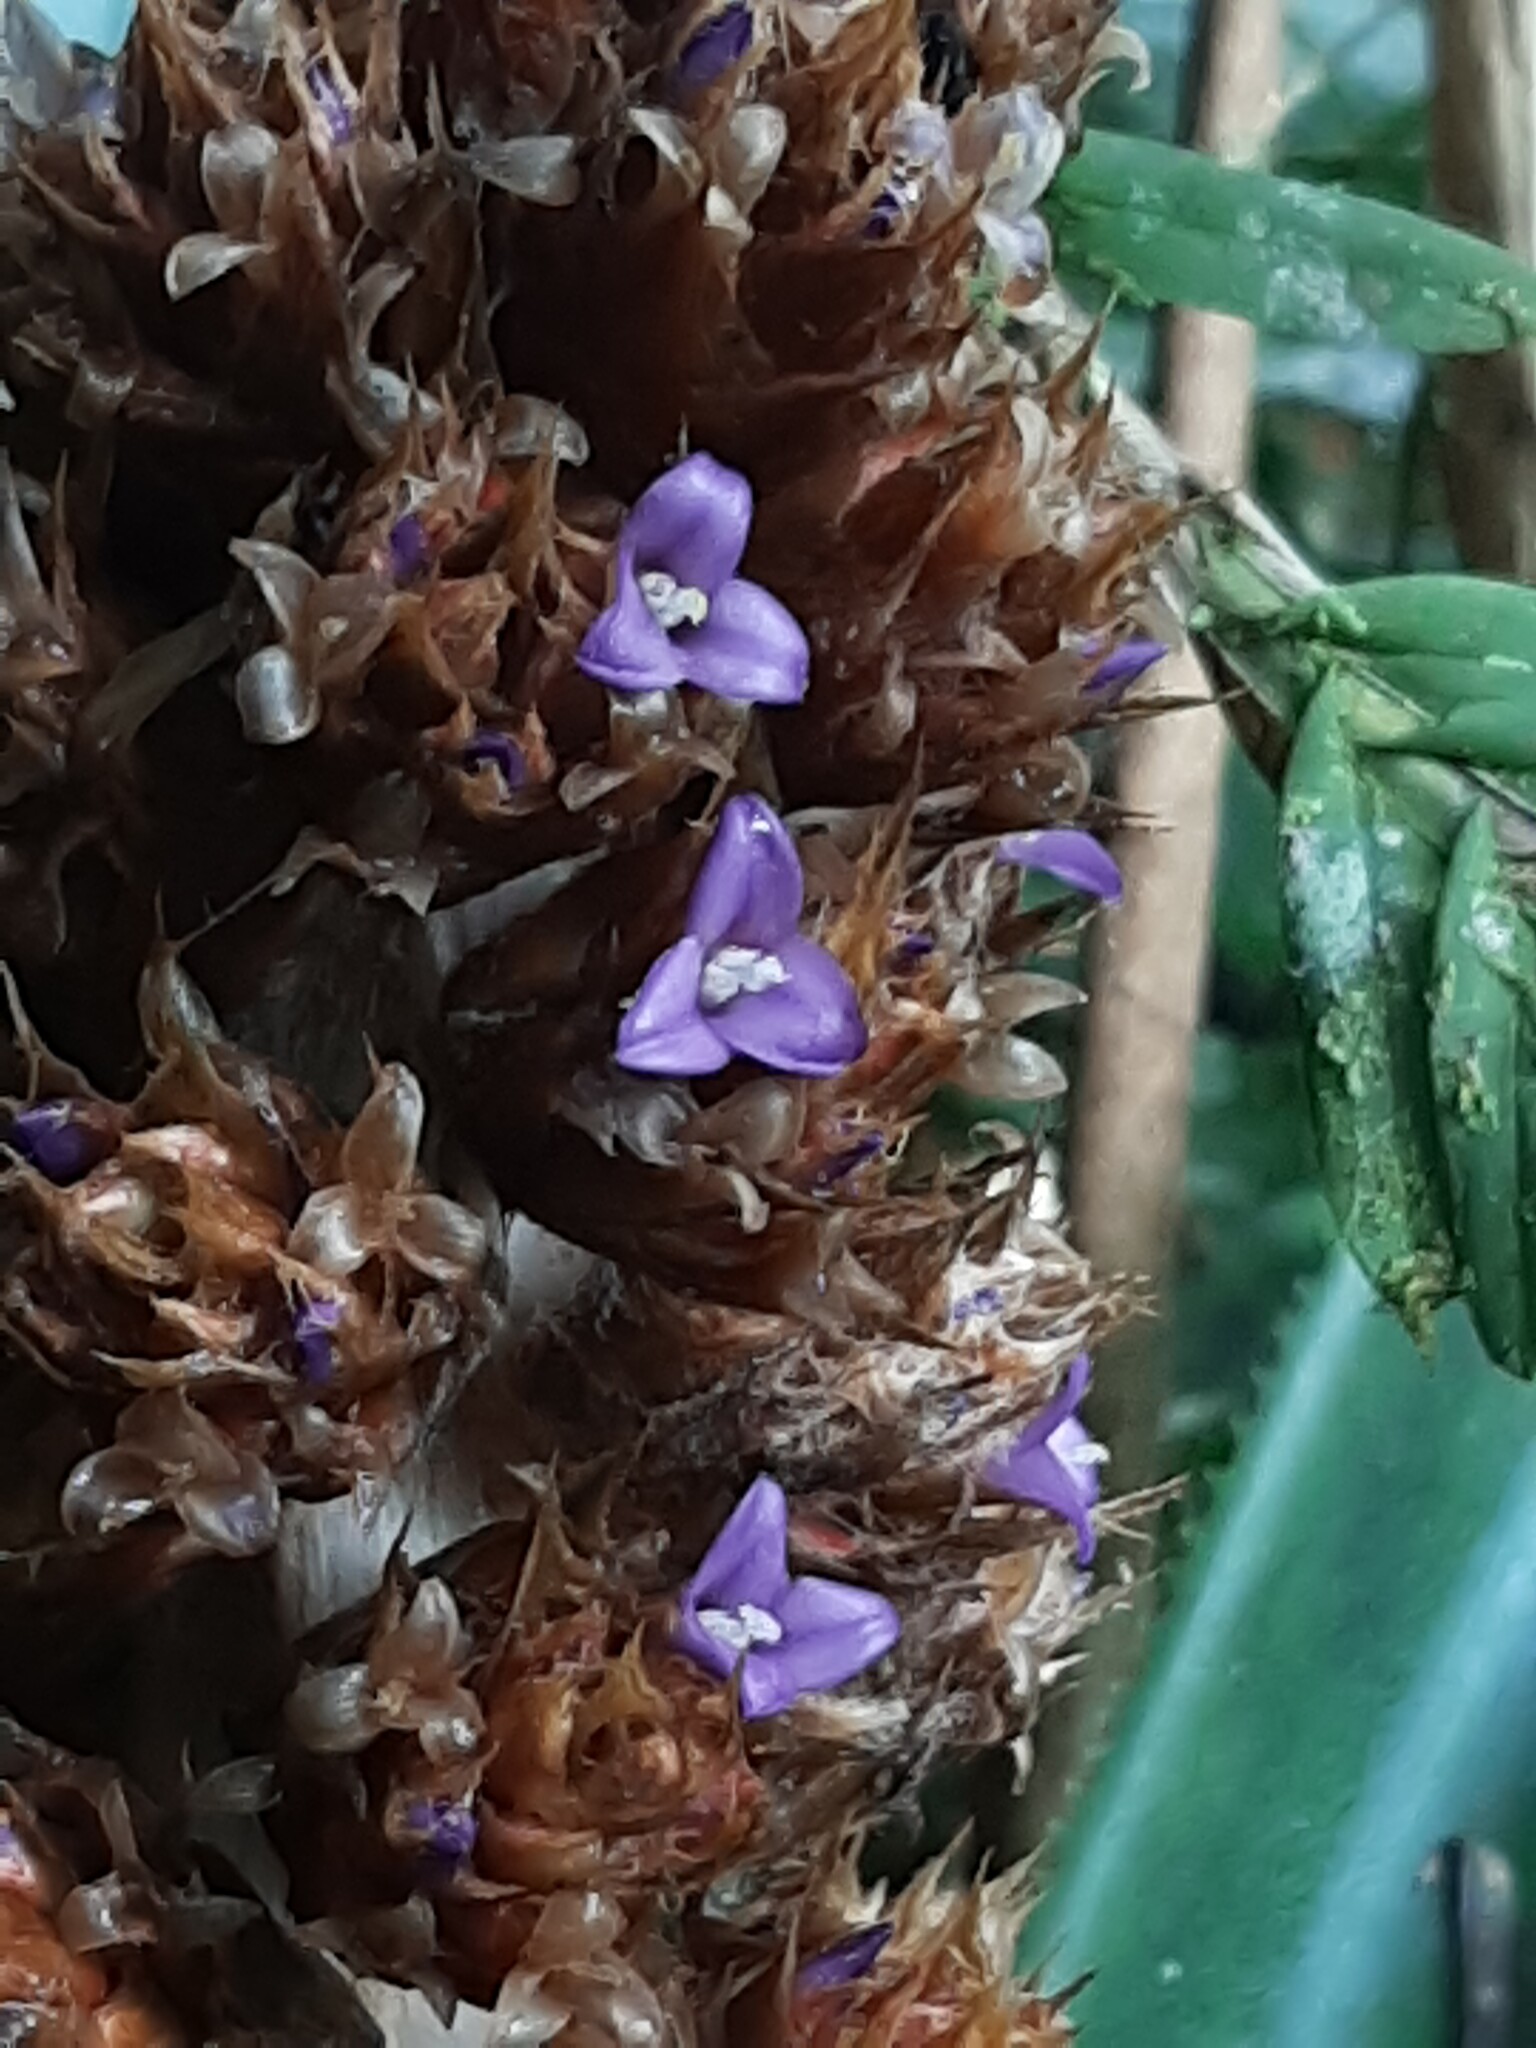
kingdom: Plantae
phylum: Tracheophyta
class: Liliopsida
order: Poales
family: Bromeliaceae
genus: Hohenbergiopsis
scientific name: Hohenbergiopsis guatemalensis
